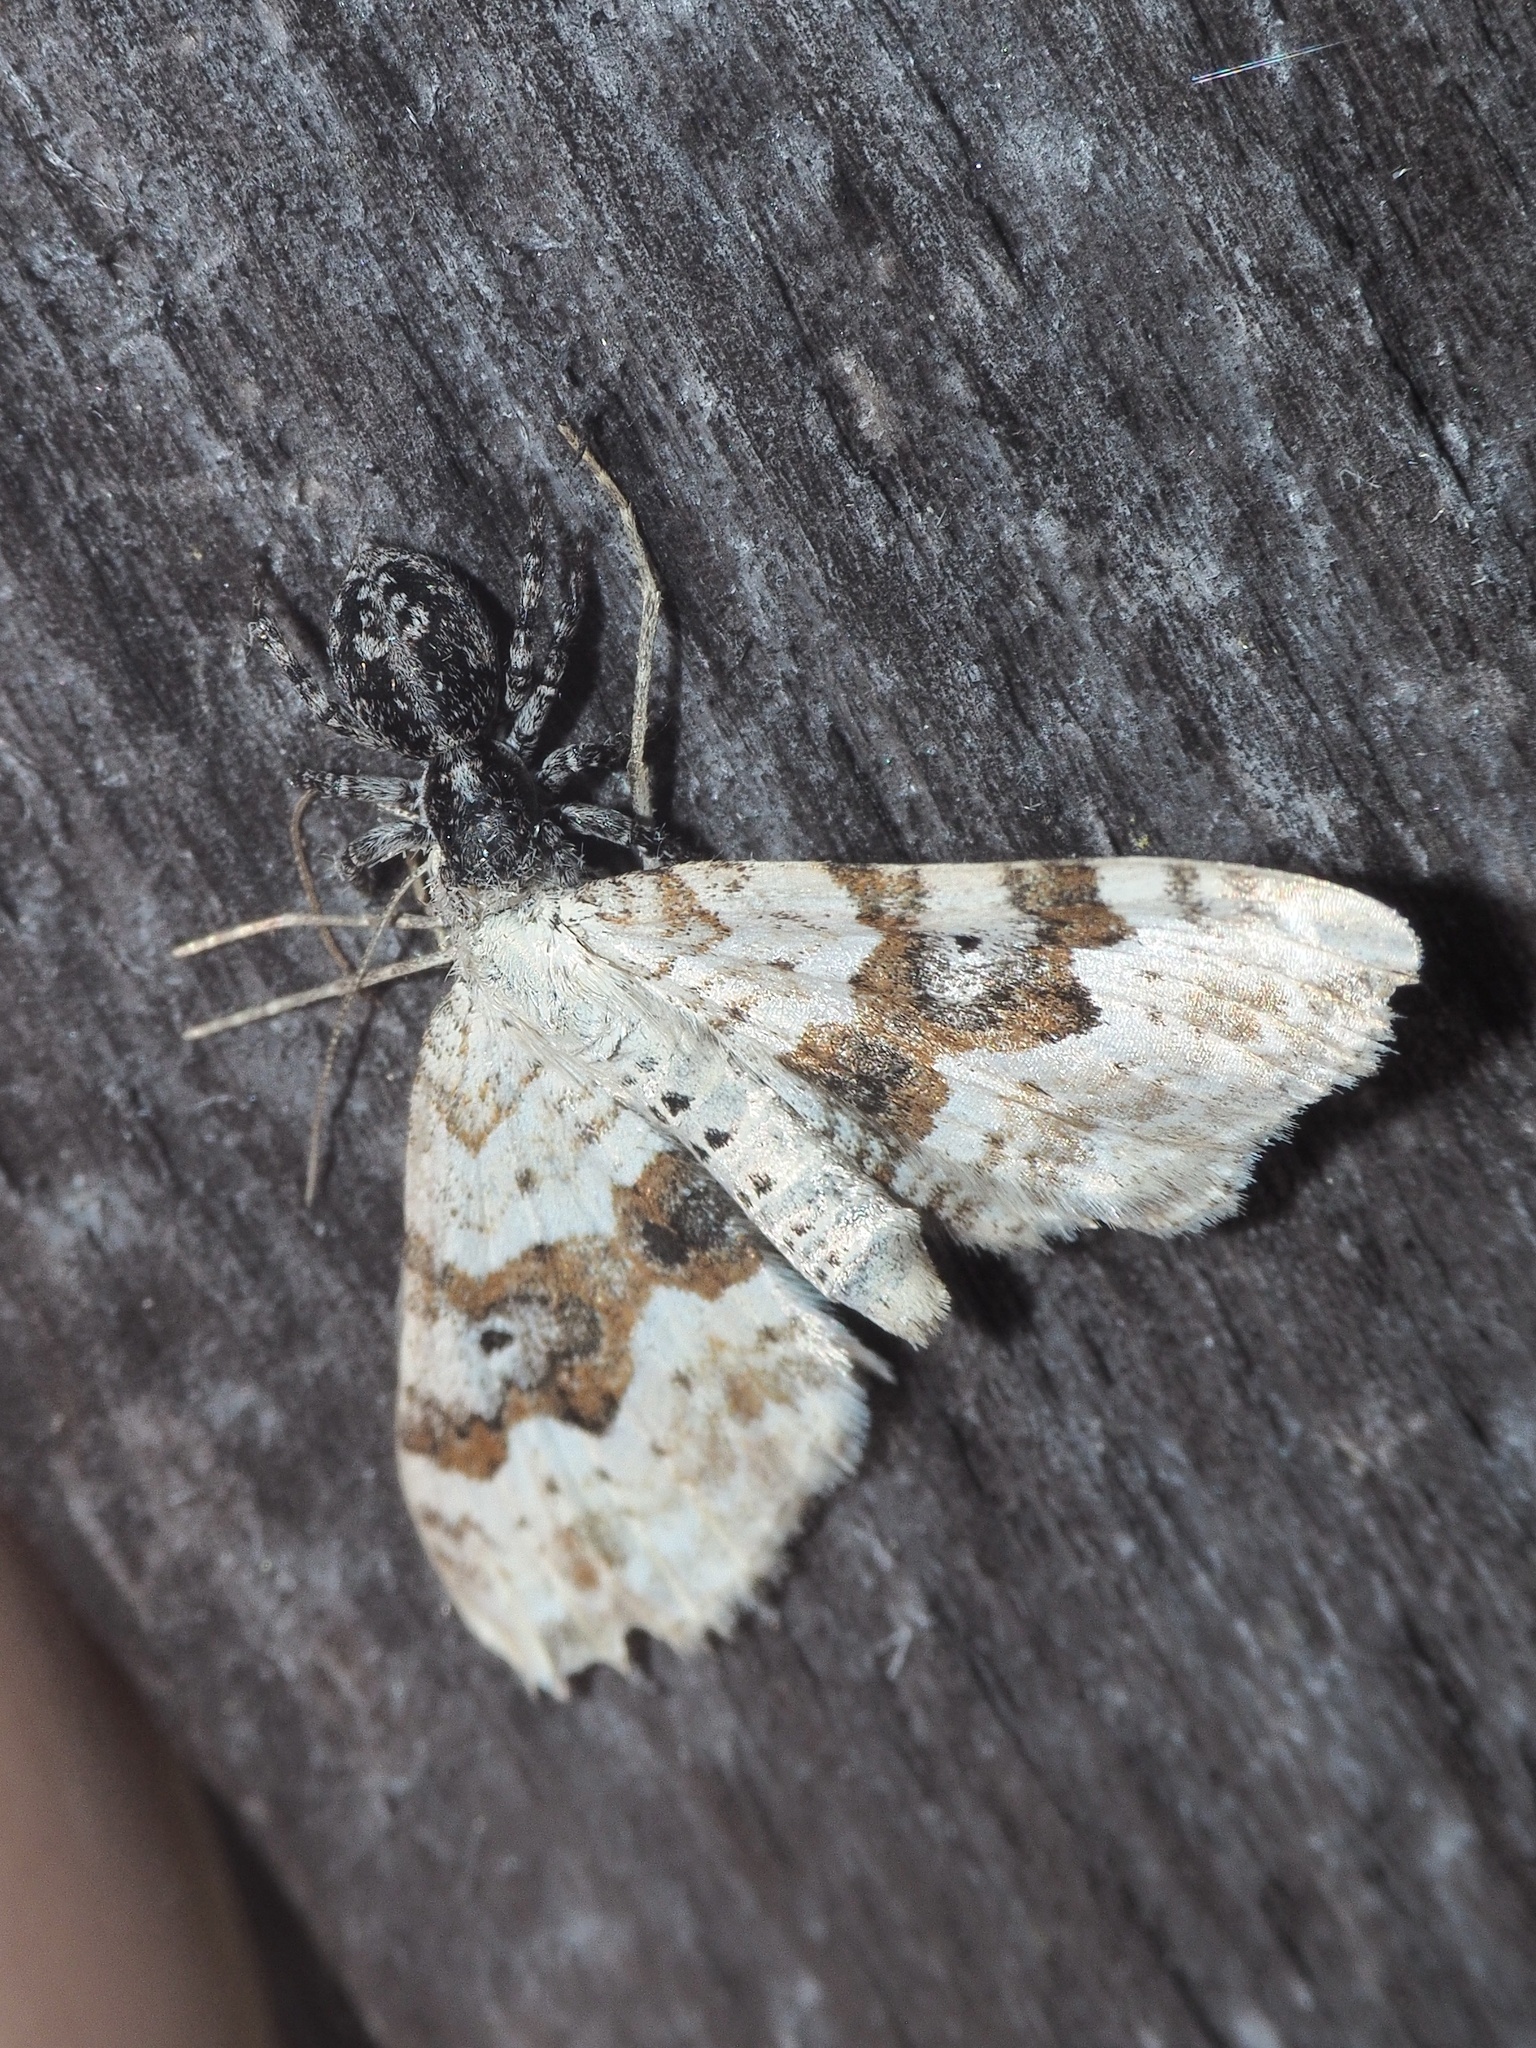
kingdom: Animalia
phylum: Arthropoda
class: Arachnida
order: Araneae
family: Salticidae
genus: Attulus
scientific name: Attulus terebratus
